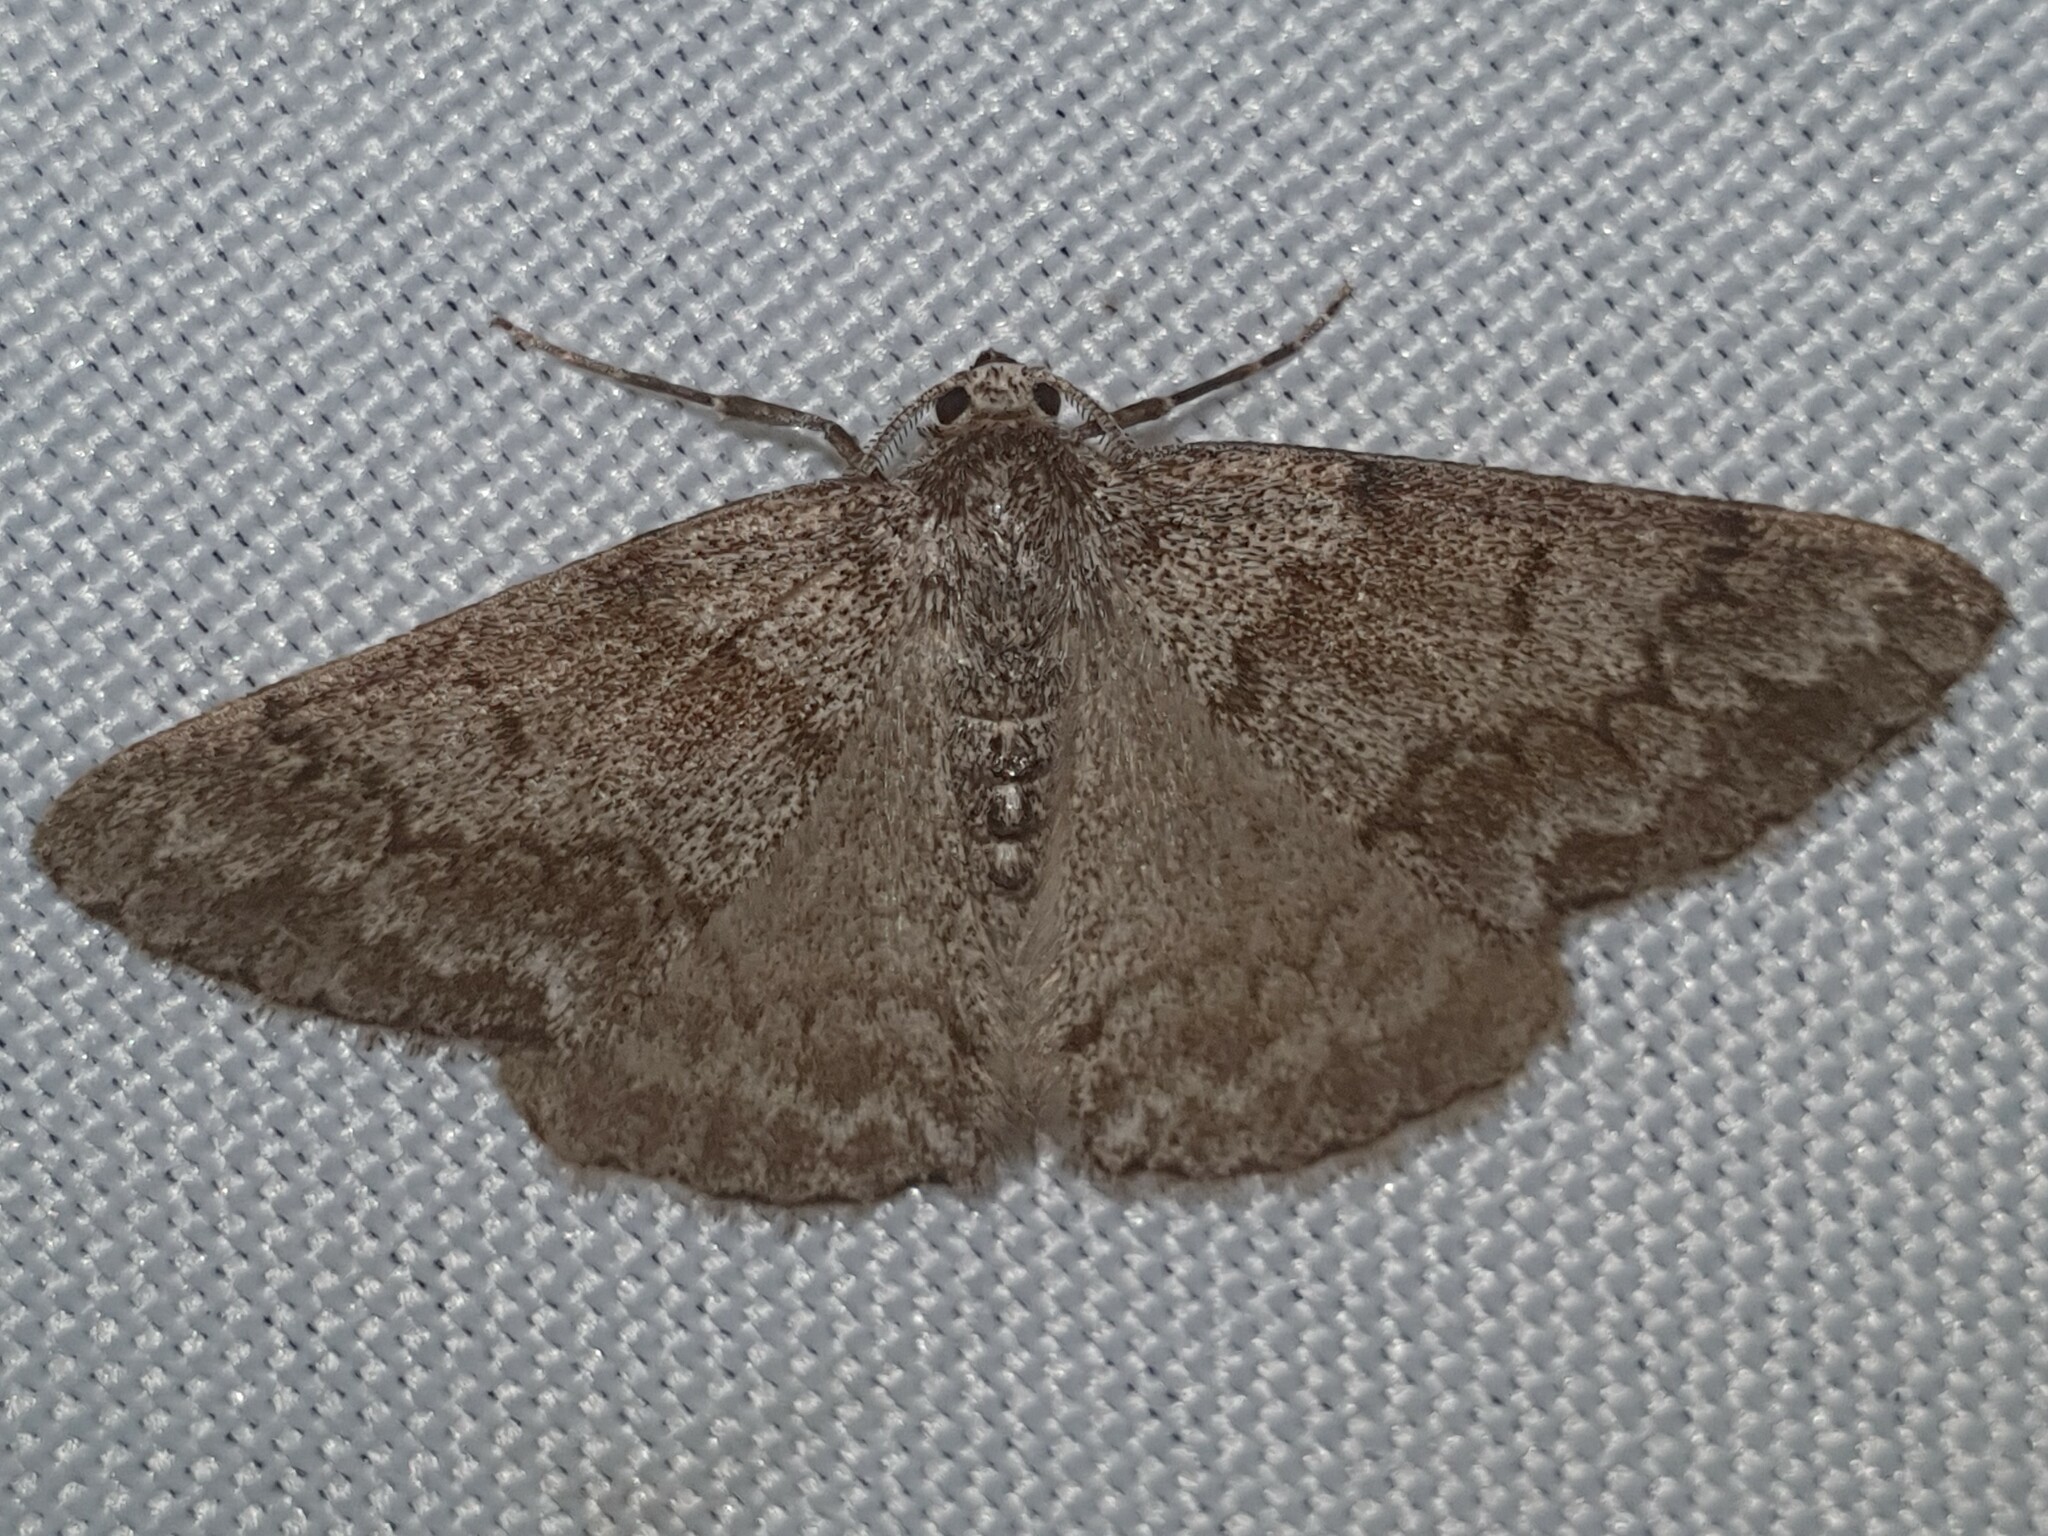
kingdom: Animalia
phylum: Arthropoda
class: Insecta
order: Lepidoptera
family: Geometridae
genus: Pseudoterpna
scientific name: Pseudoterpna coronillaria
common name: Jersey emerald
